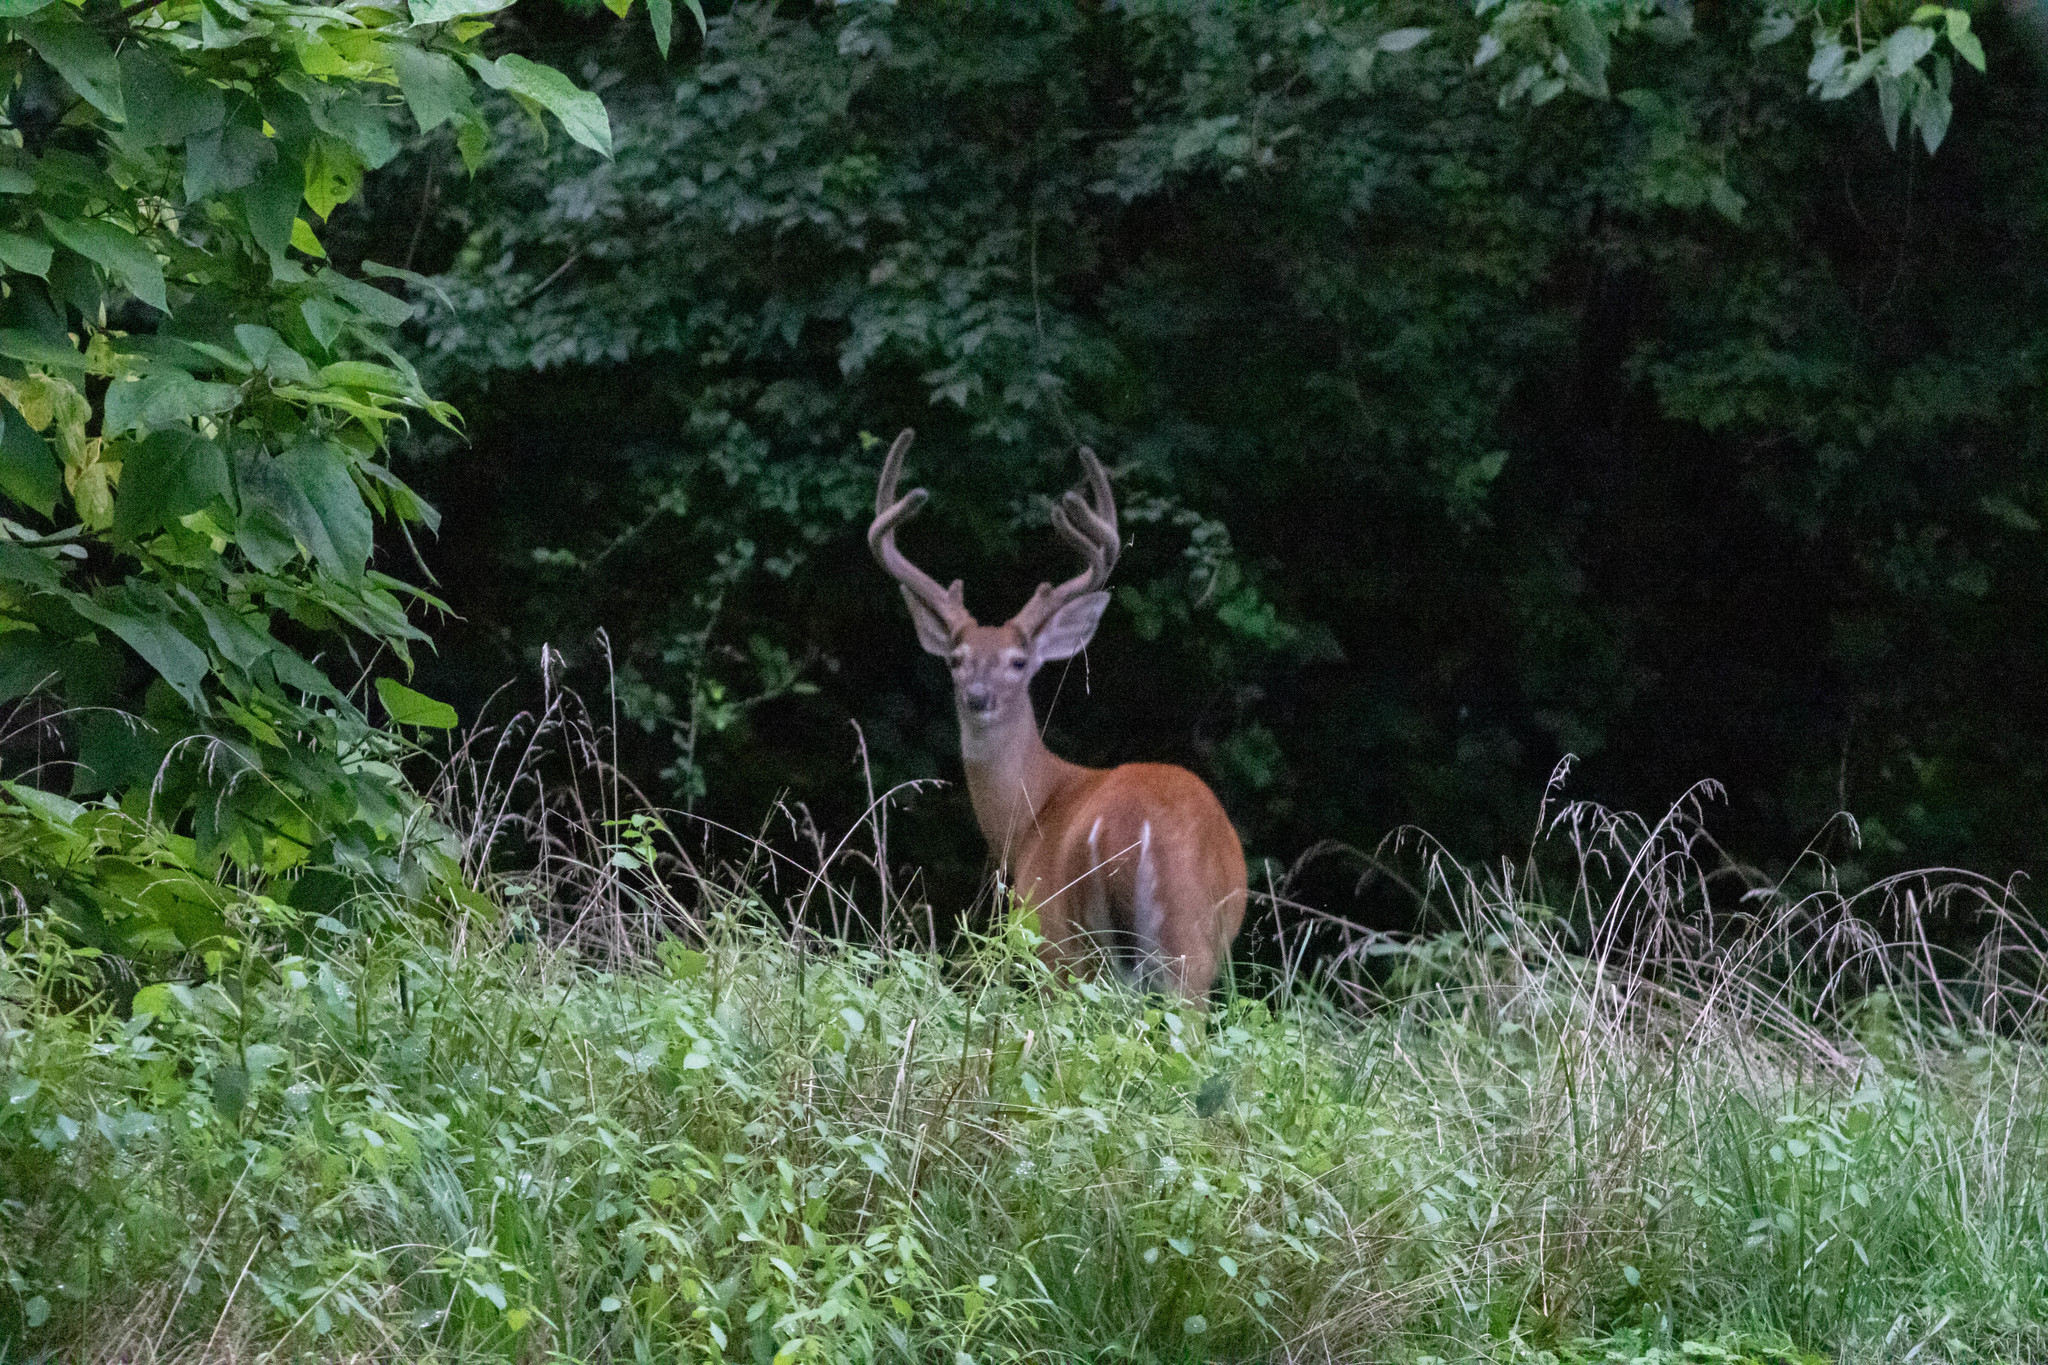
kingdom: Animalia
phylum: Chordata
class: Mammalia
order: Artiodactyla
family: Cervidae
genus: Odocoileus
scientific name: Odocoileus virginianus
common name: White-tailed deer
